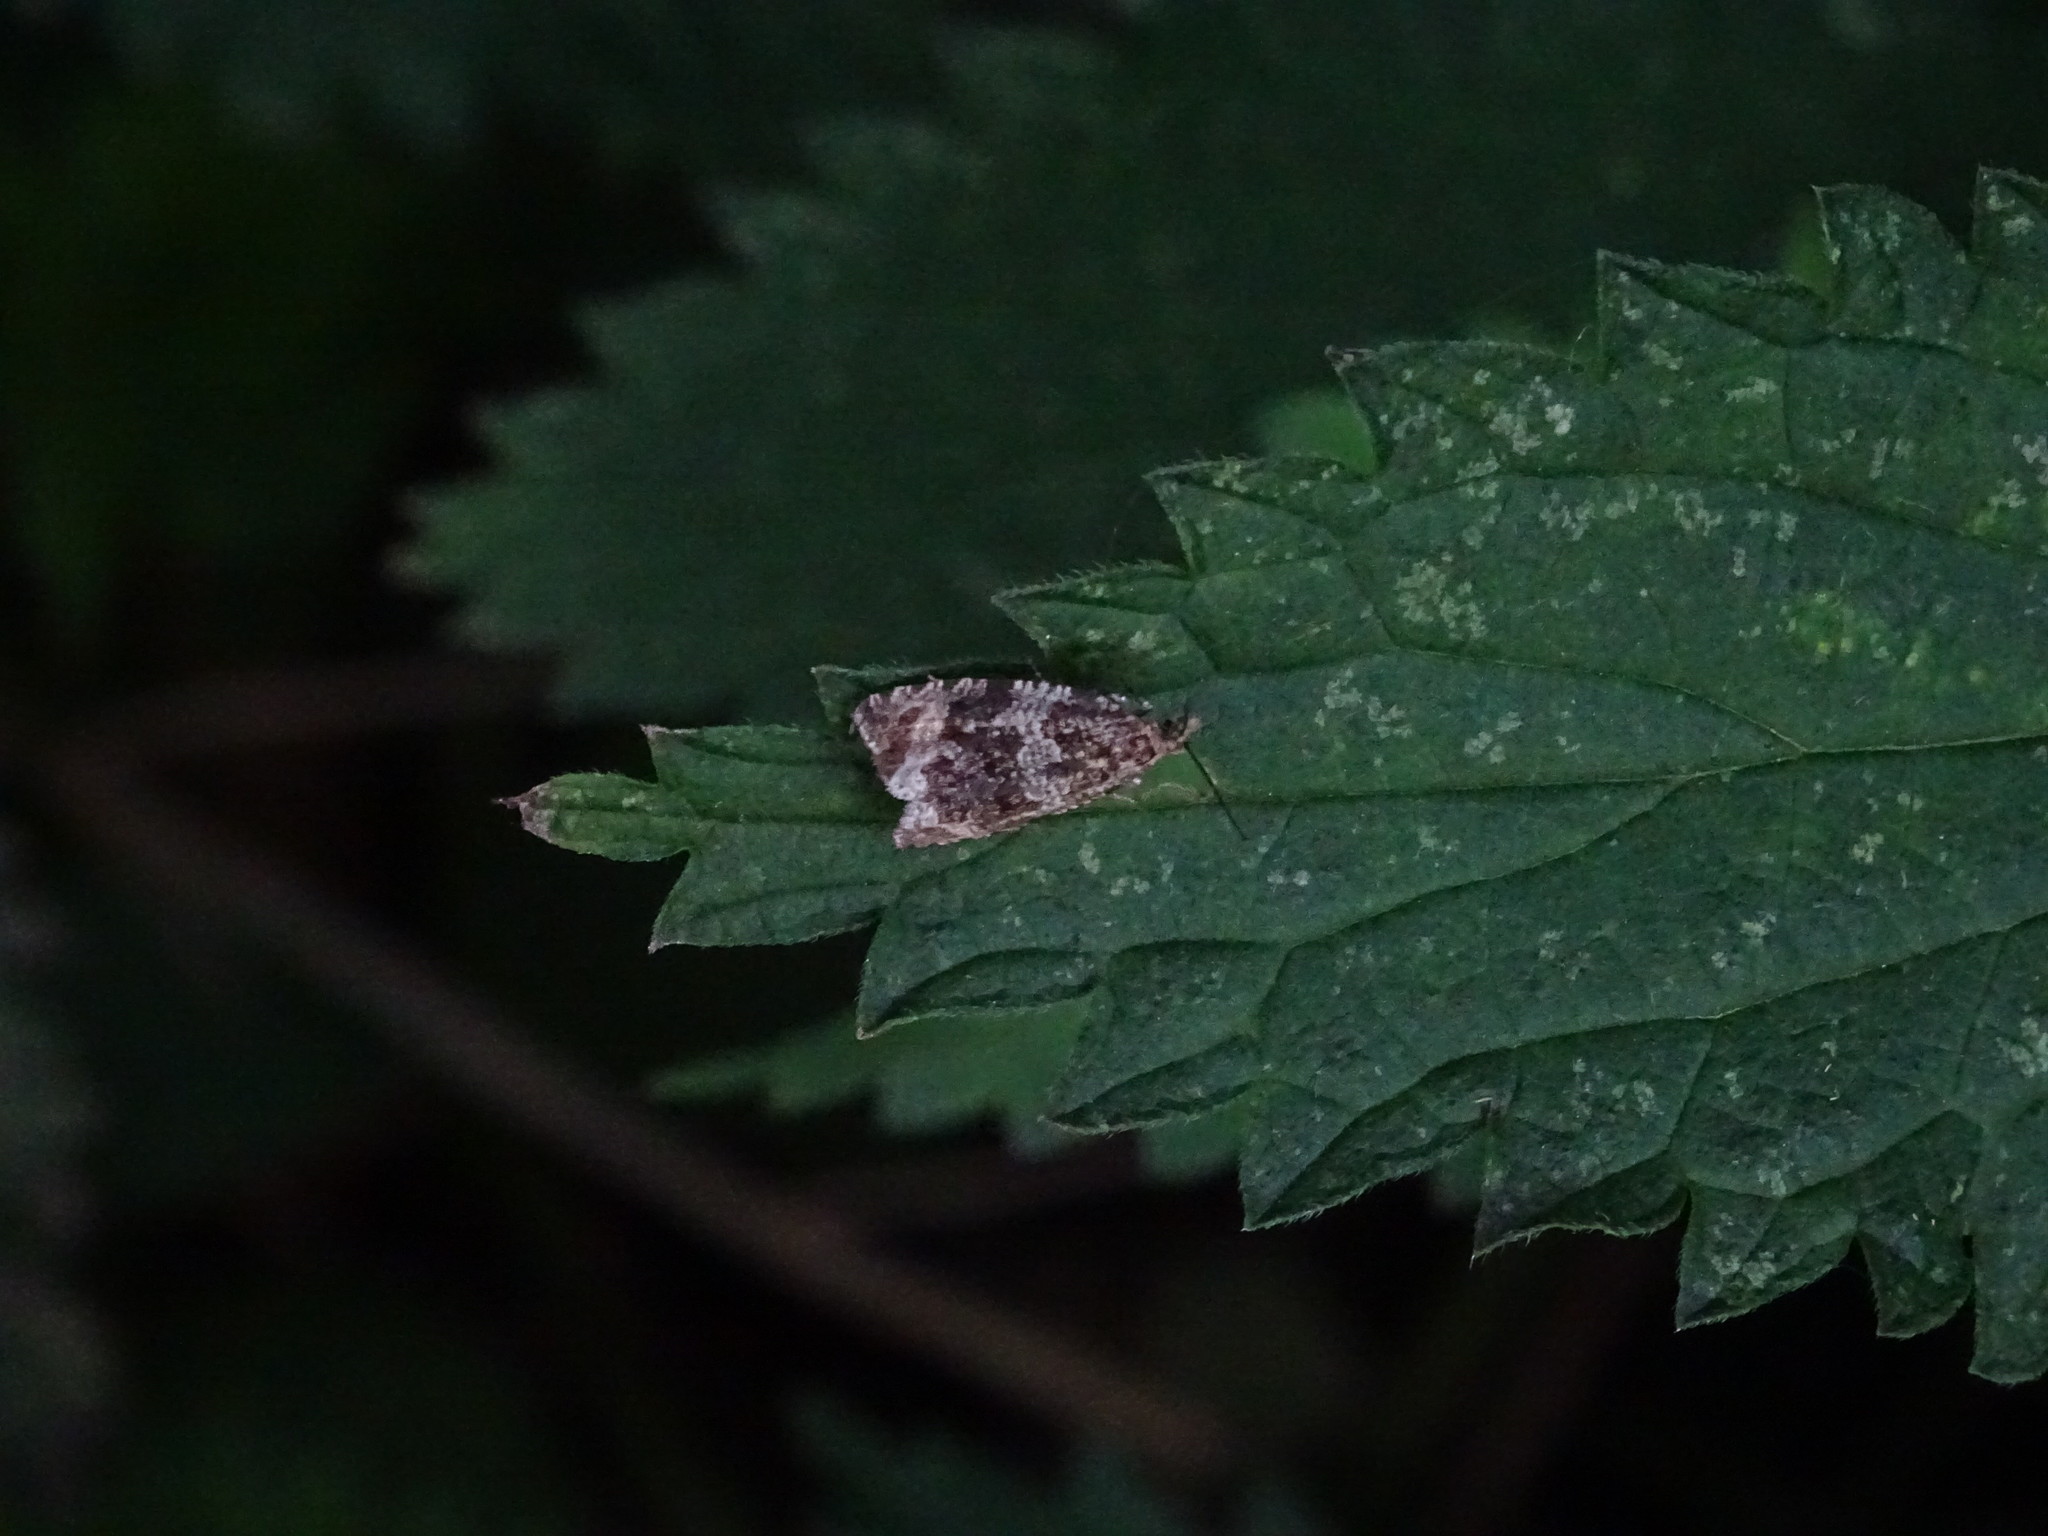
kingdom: Animalia
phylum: Arthropoda
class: Insecta
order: Lepidoptera
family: Tortricidae
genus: Syricoris
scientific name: Syricoris lacunana
